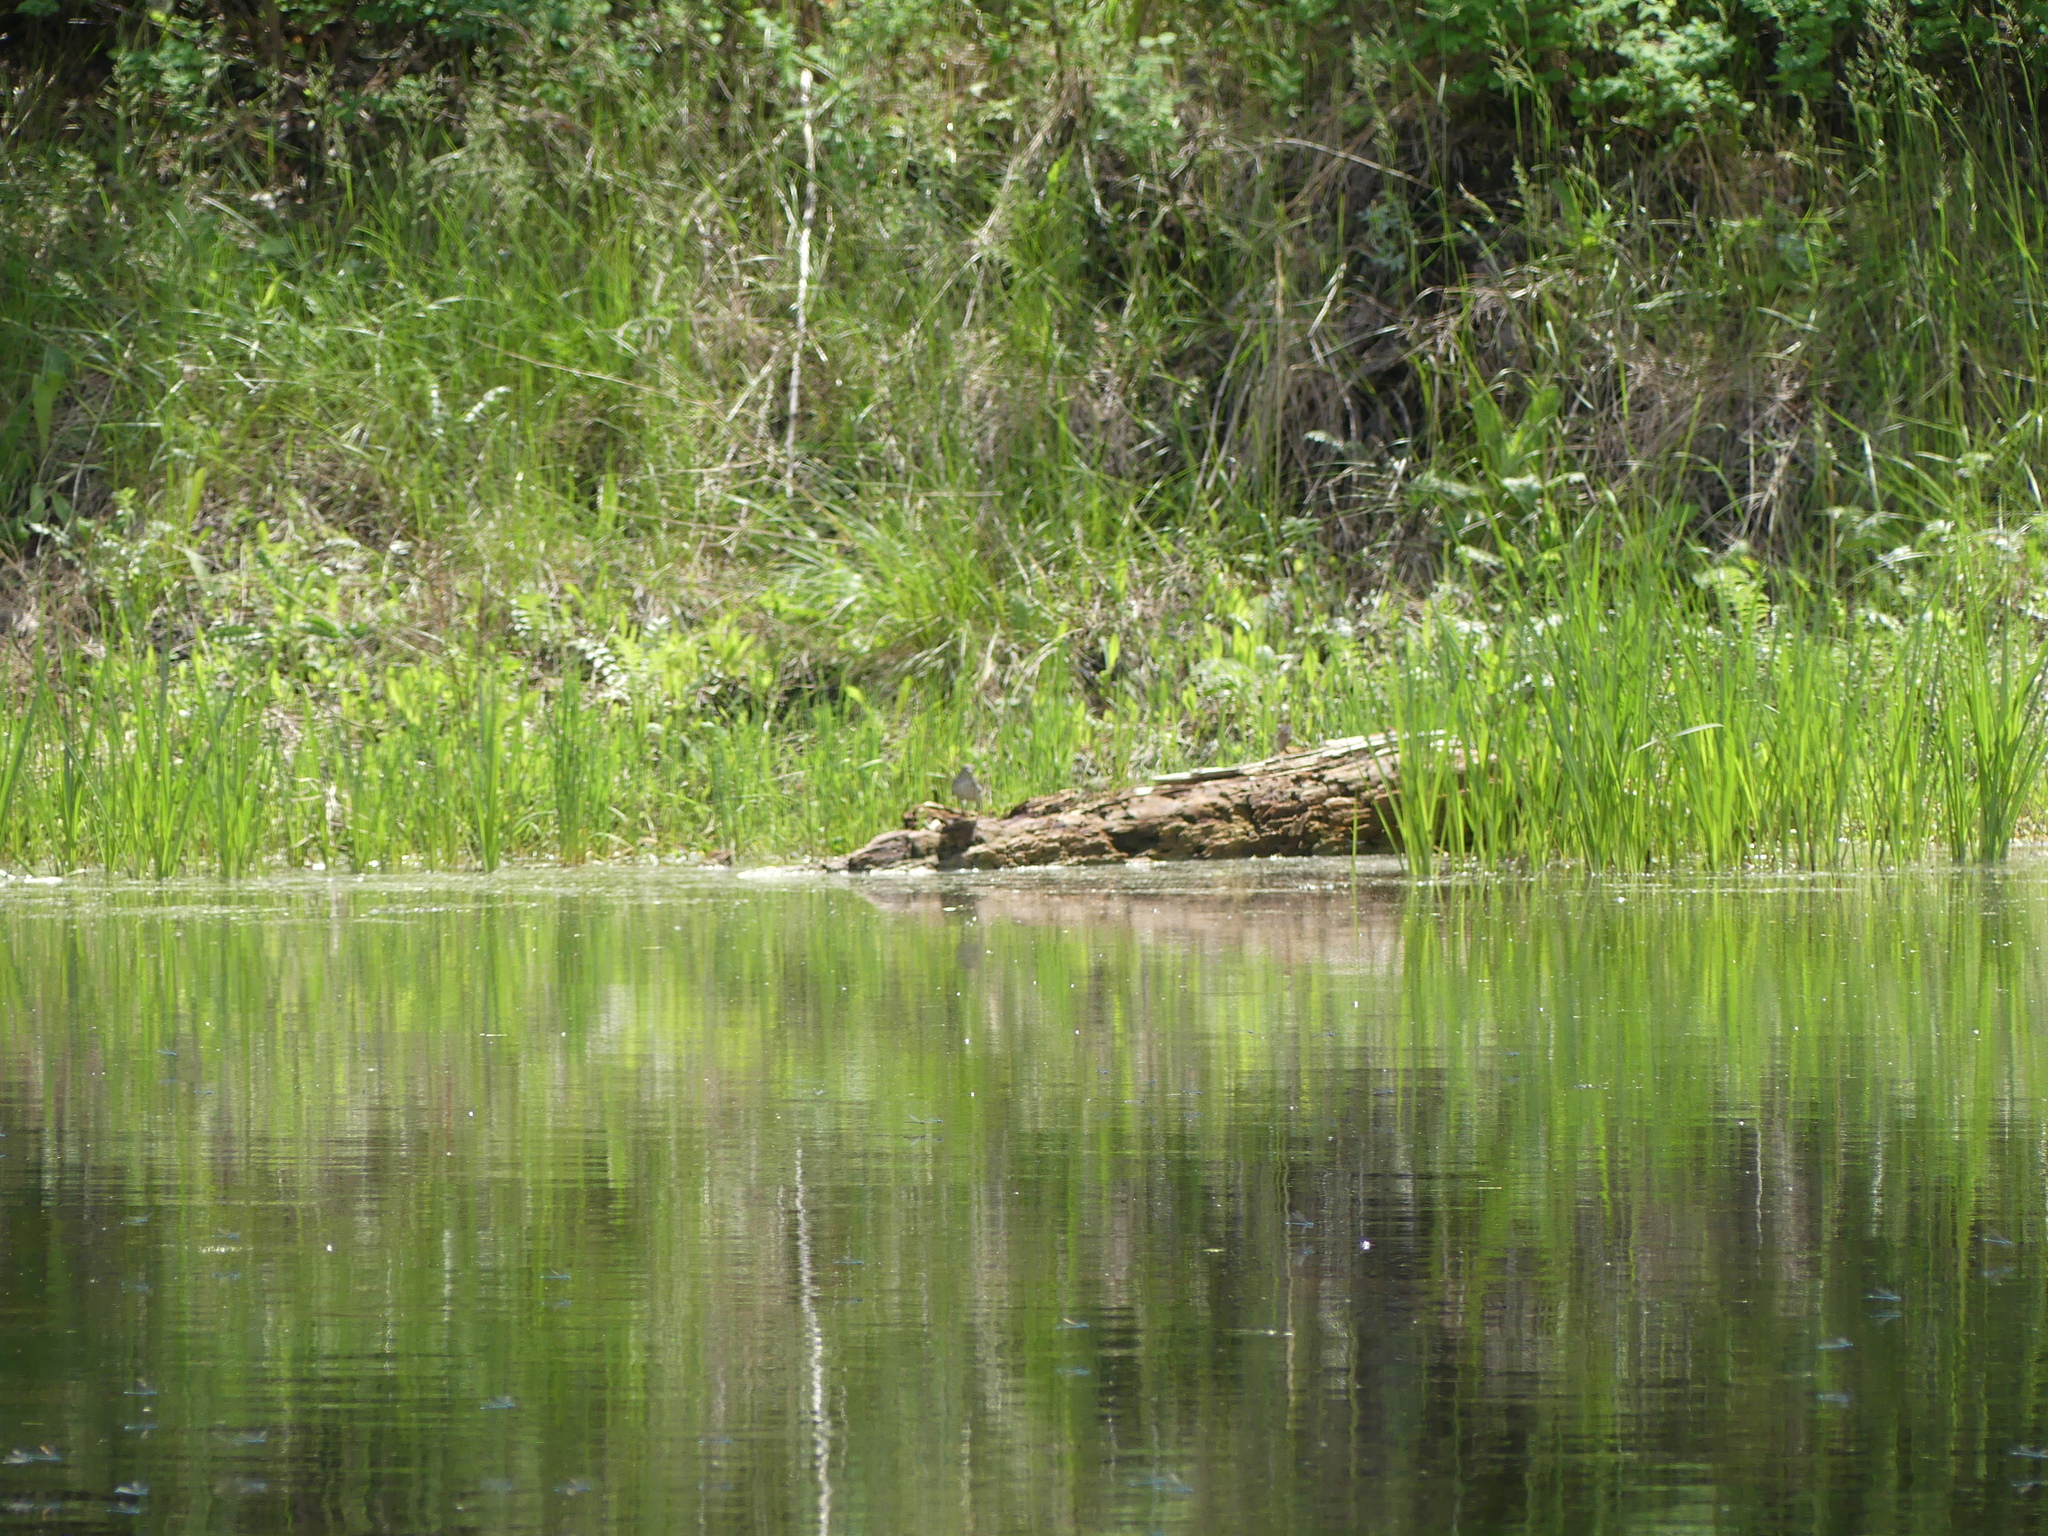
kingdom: Animalia
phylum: Chordata
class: Aves
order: Charadriiformes
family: Scolopacidae
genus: Actitis
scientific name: Actitis macularius
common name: Spotted sandpiper
